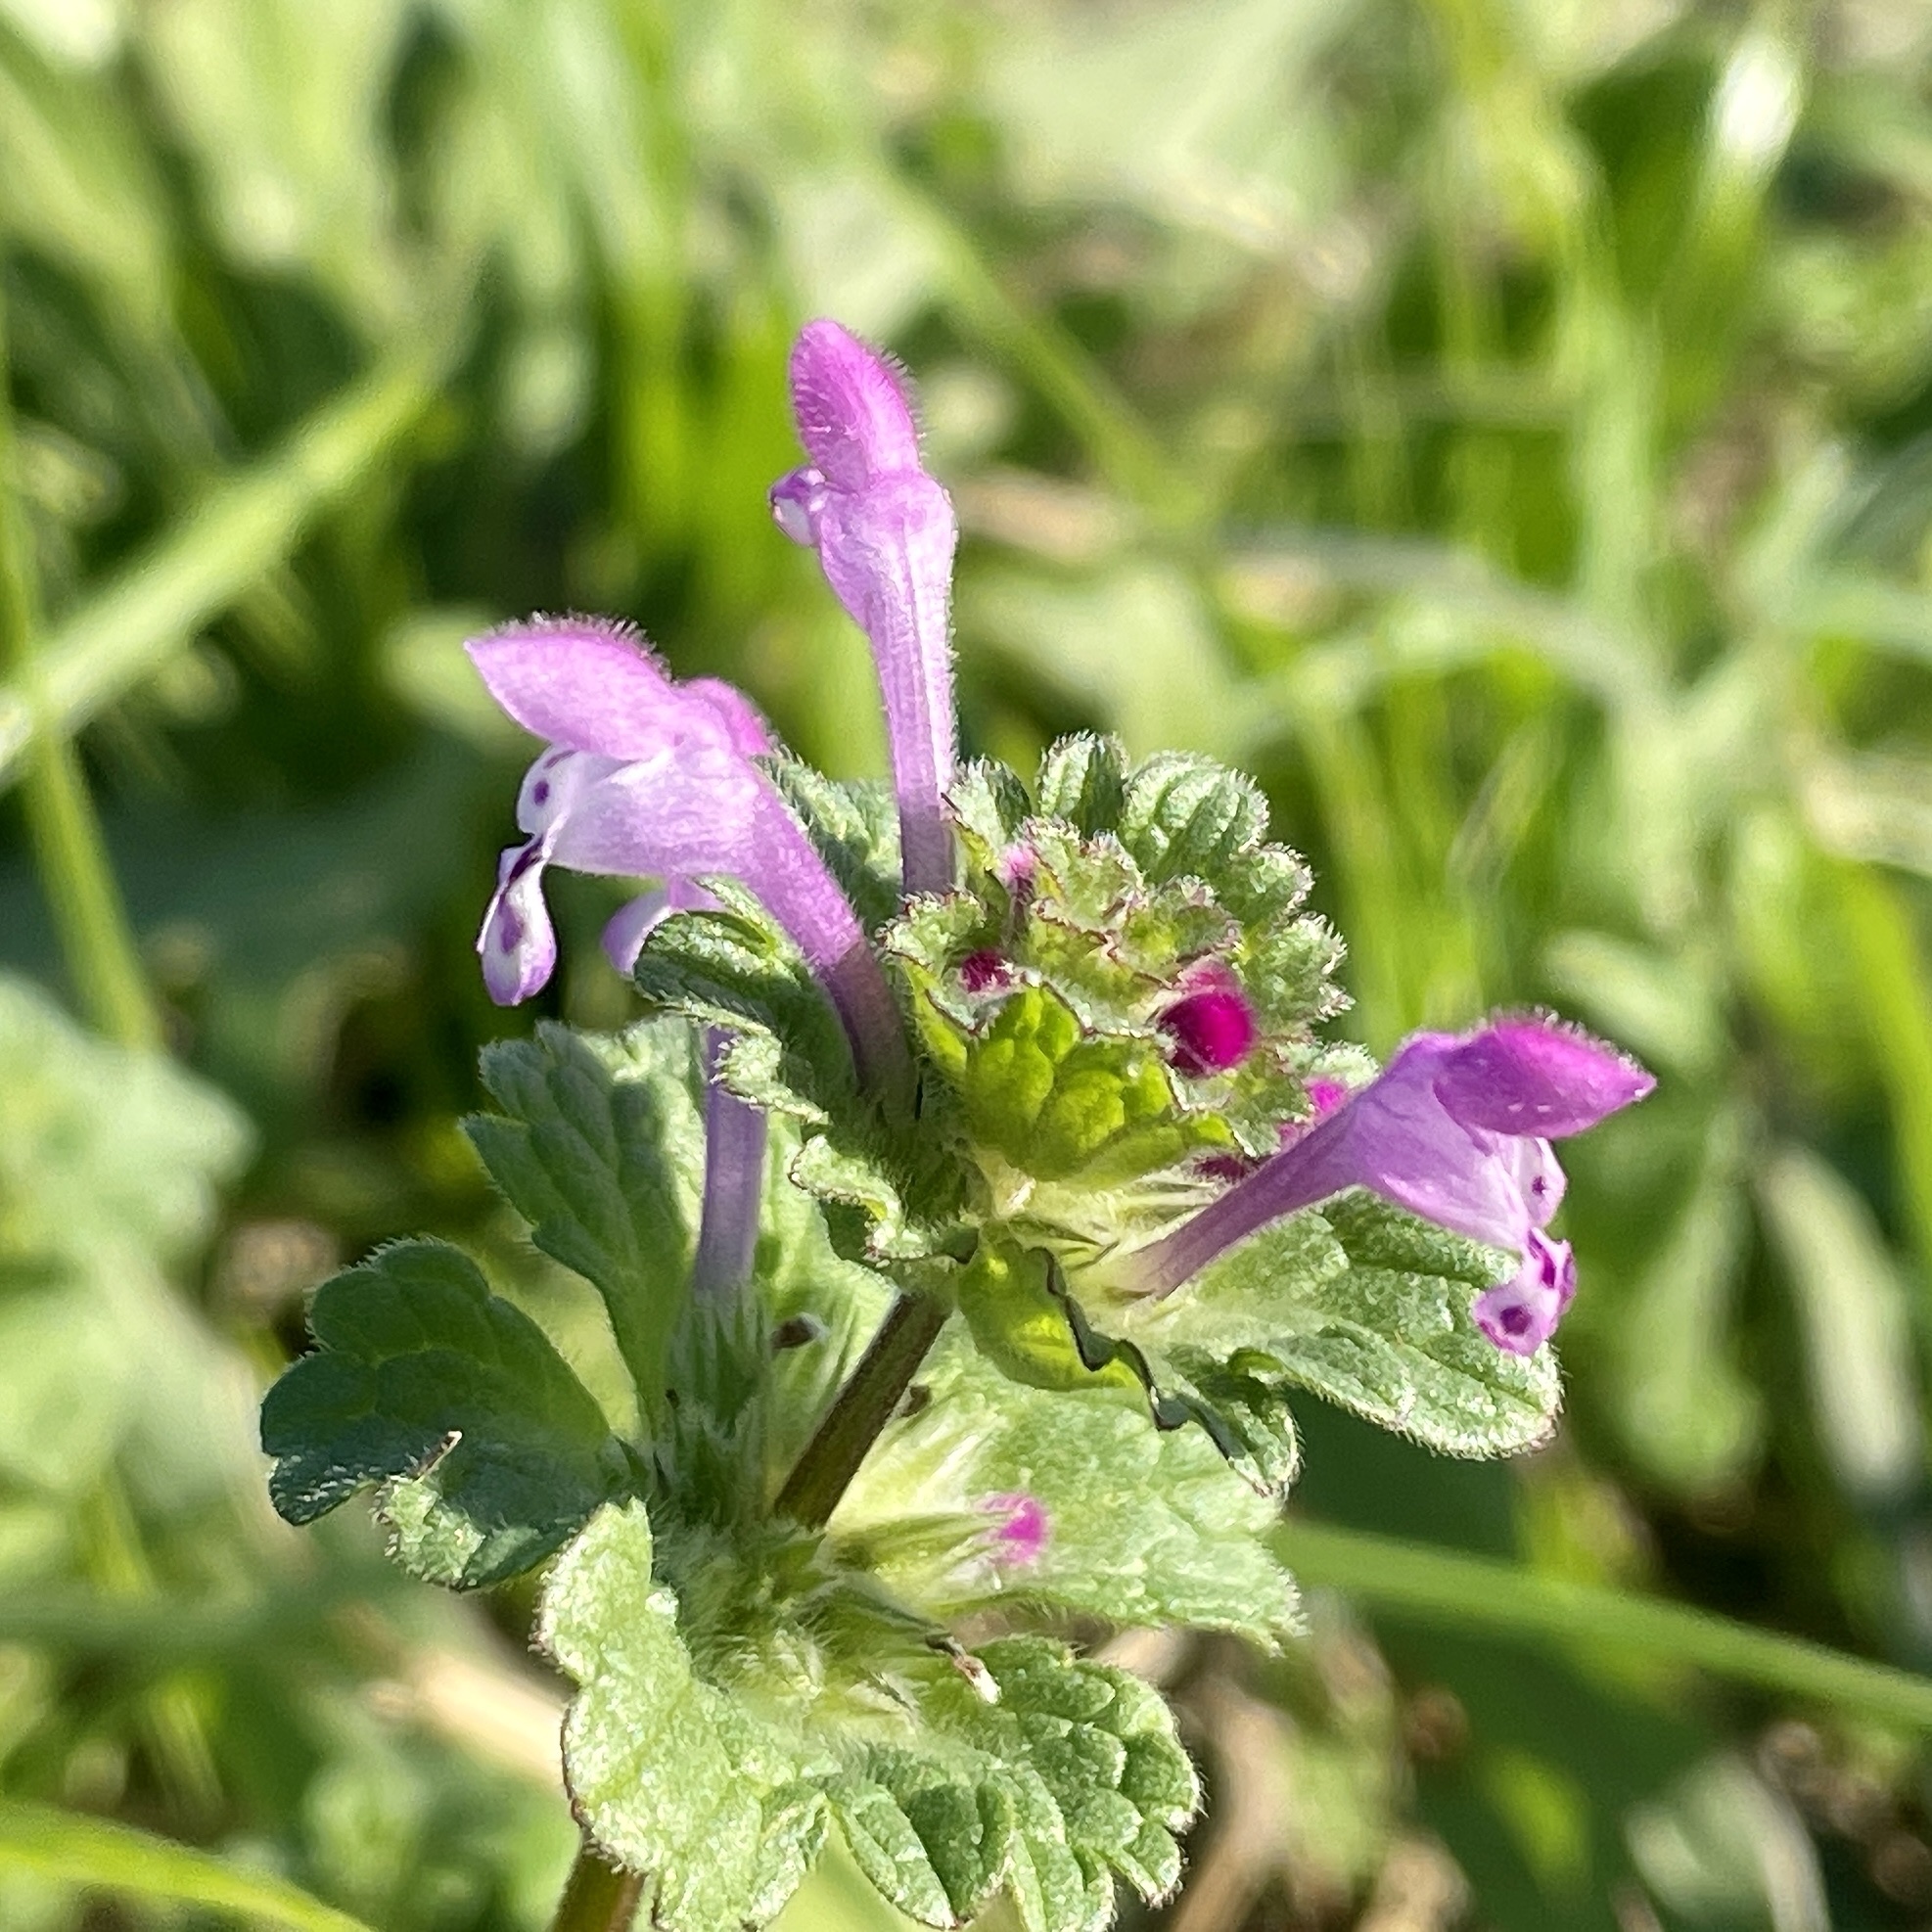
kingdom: Plantae
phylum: Tracheophyta
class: Magnoliopsida
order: Lamiales
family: Lamiaceae
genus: Lamium
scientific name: Lamium amplexicaule
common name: Henbit dead-nettle
